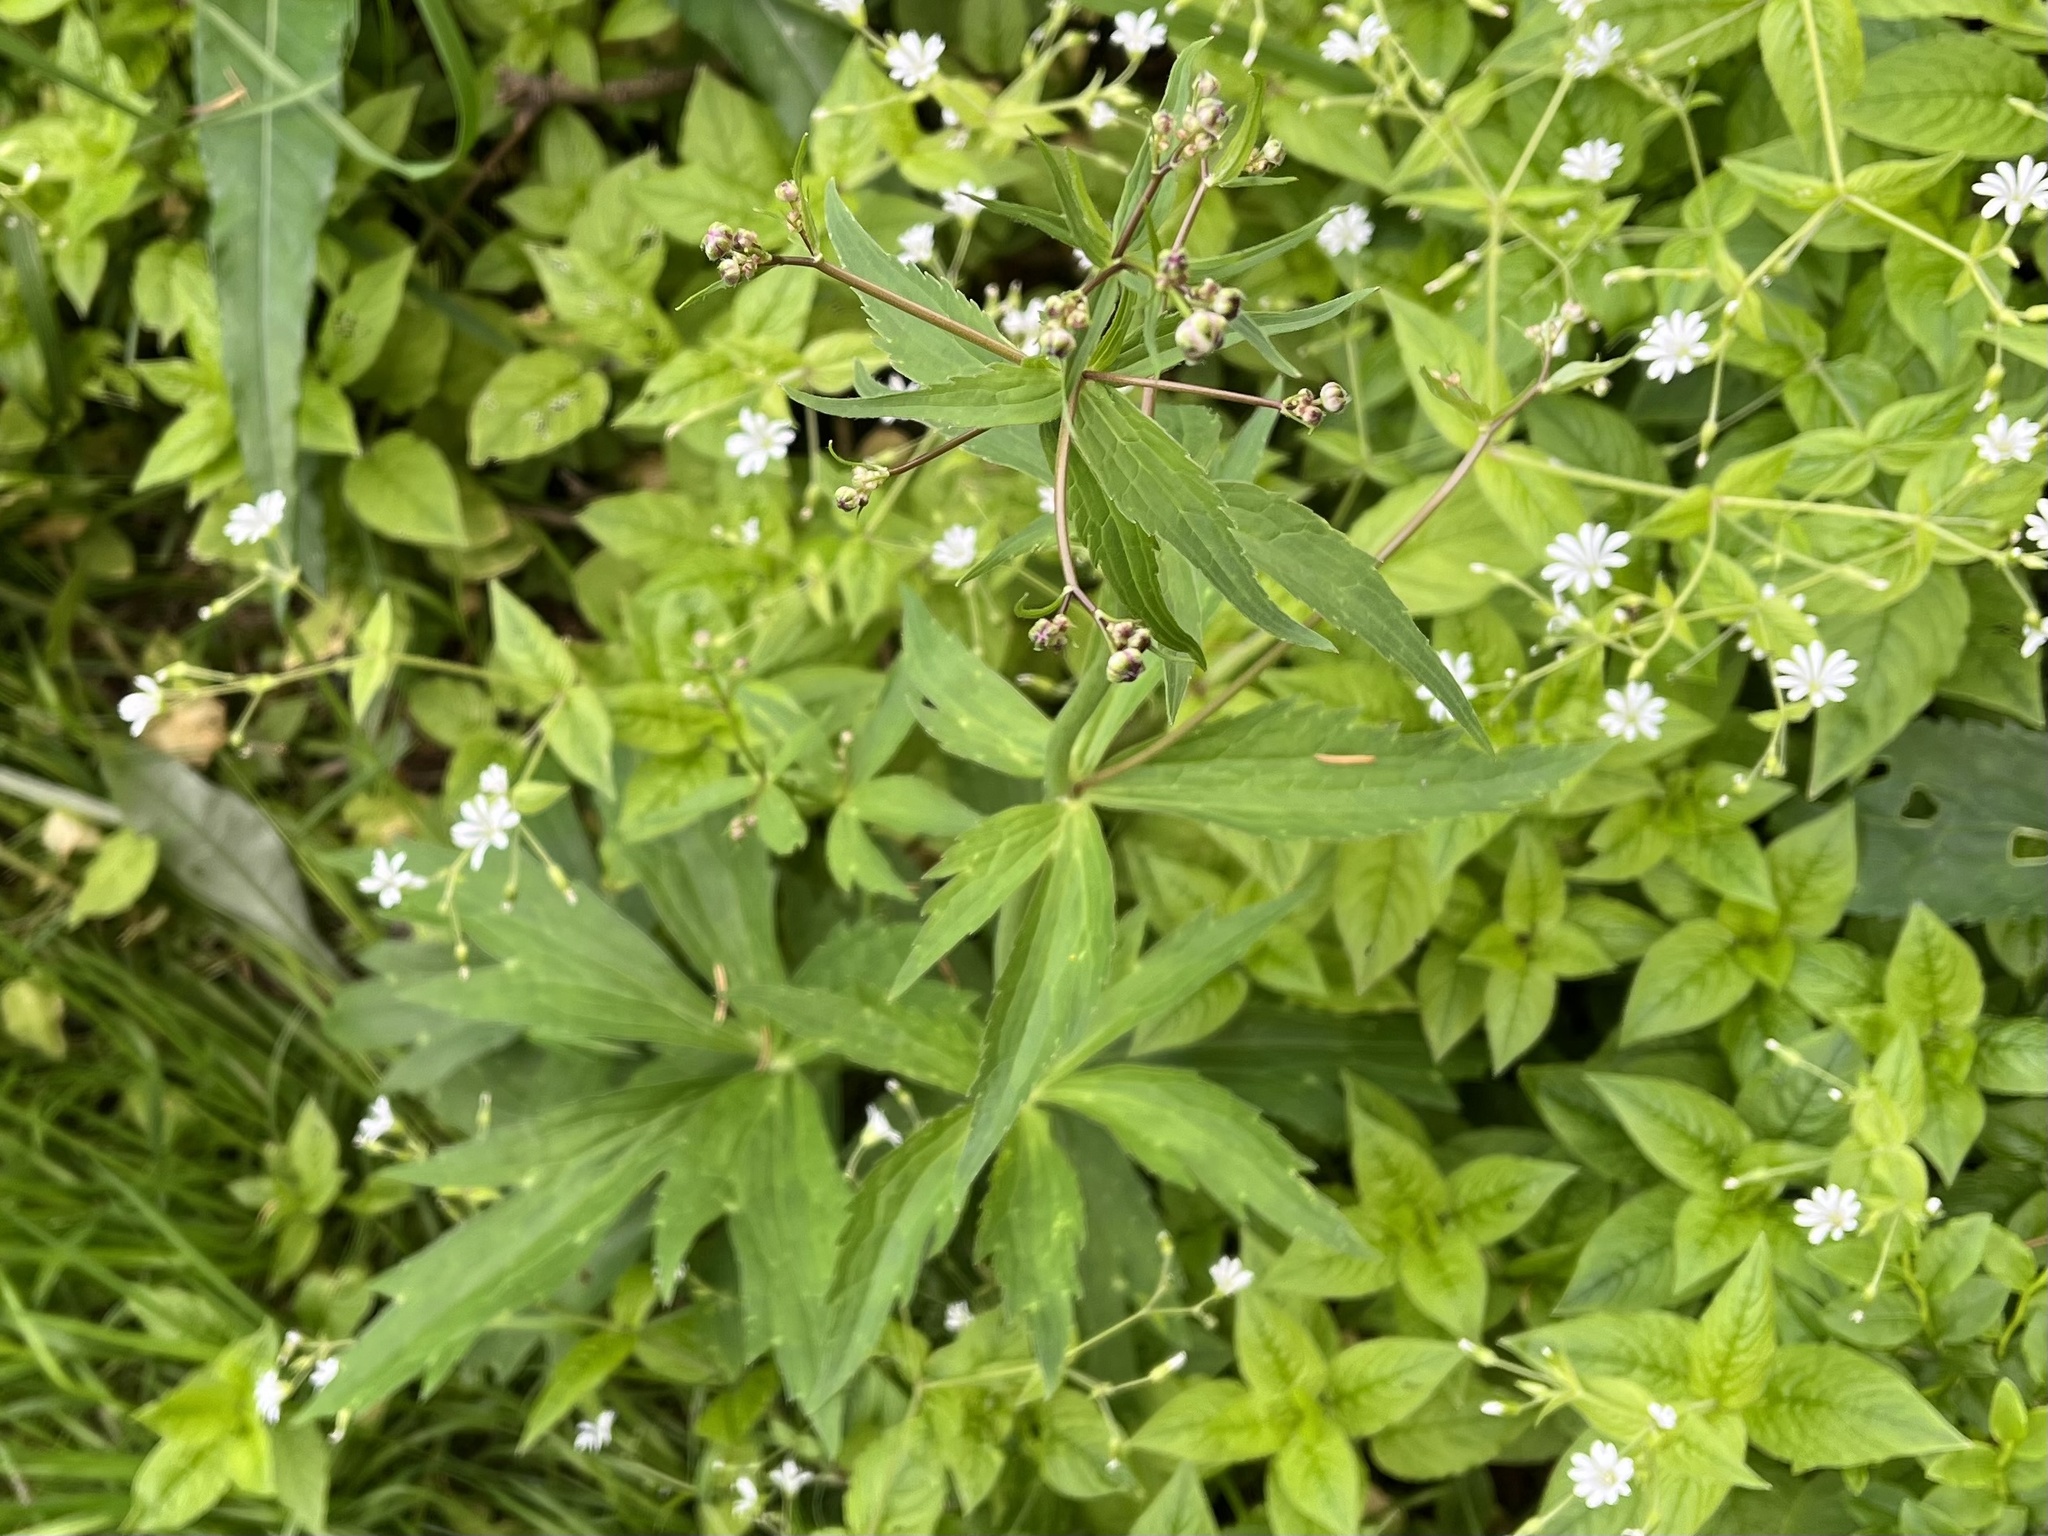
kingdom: Plantae
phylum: Tracheophyta
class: Magnoliopsida
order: Ranunculales
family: Ranunculaceae
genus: Ranunculus
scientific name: Ranunculus platanifolius
